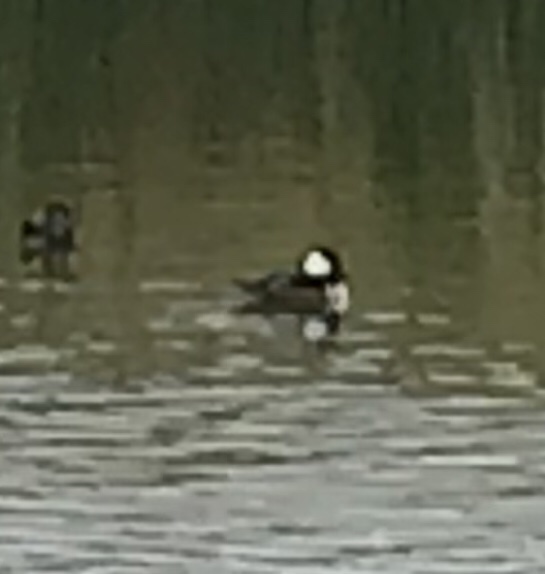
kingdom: Animalia
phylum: Chordata
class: Aves
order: Anseriformes
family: Anatidae
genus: Lophodytes
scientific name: Lophodytes cucullatus
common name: Hooded merganser
